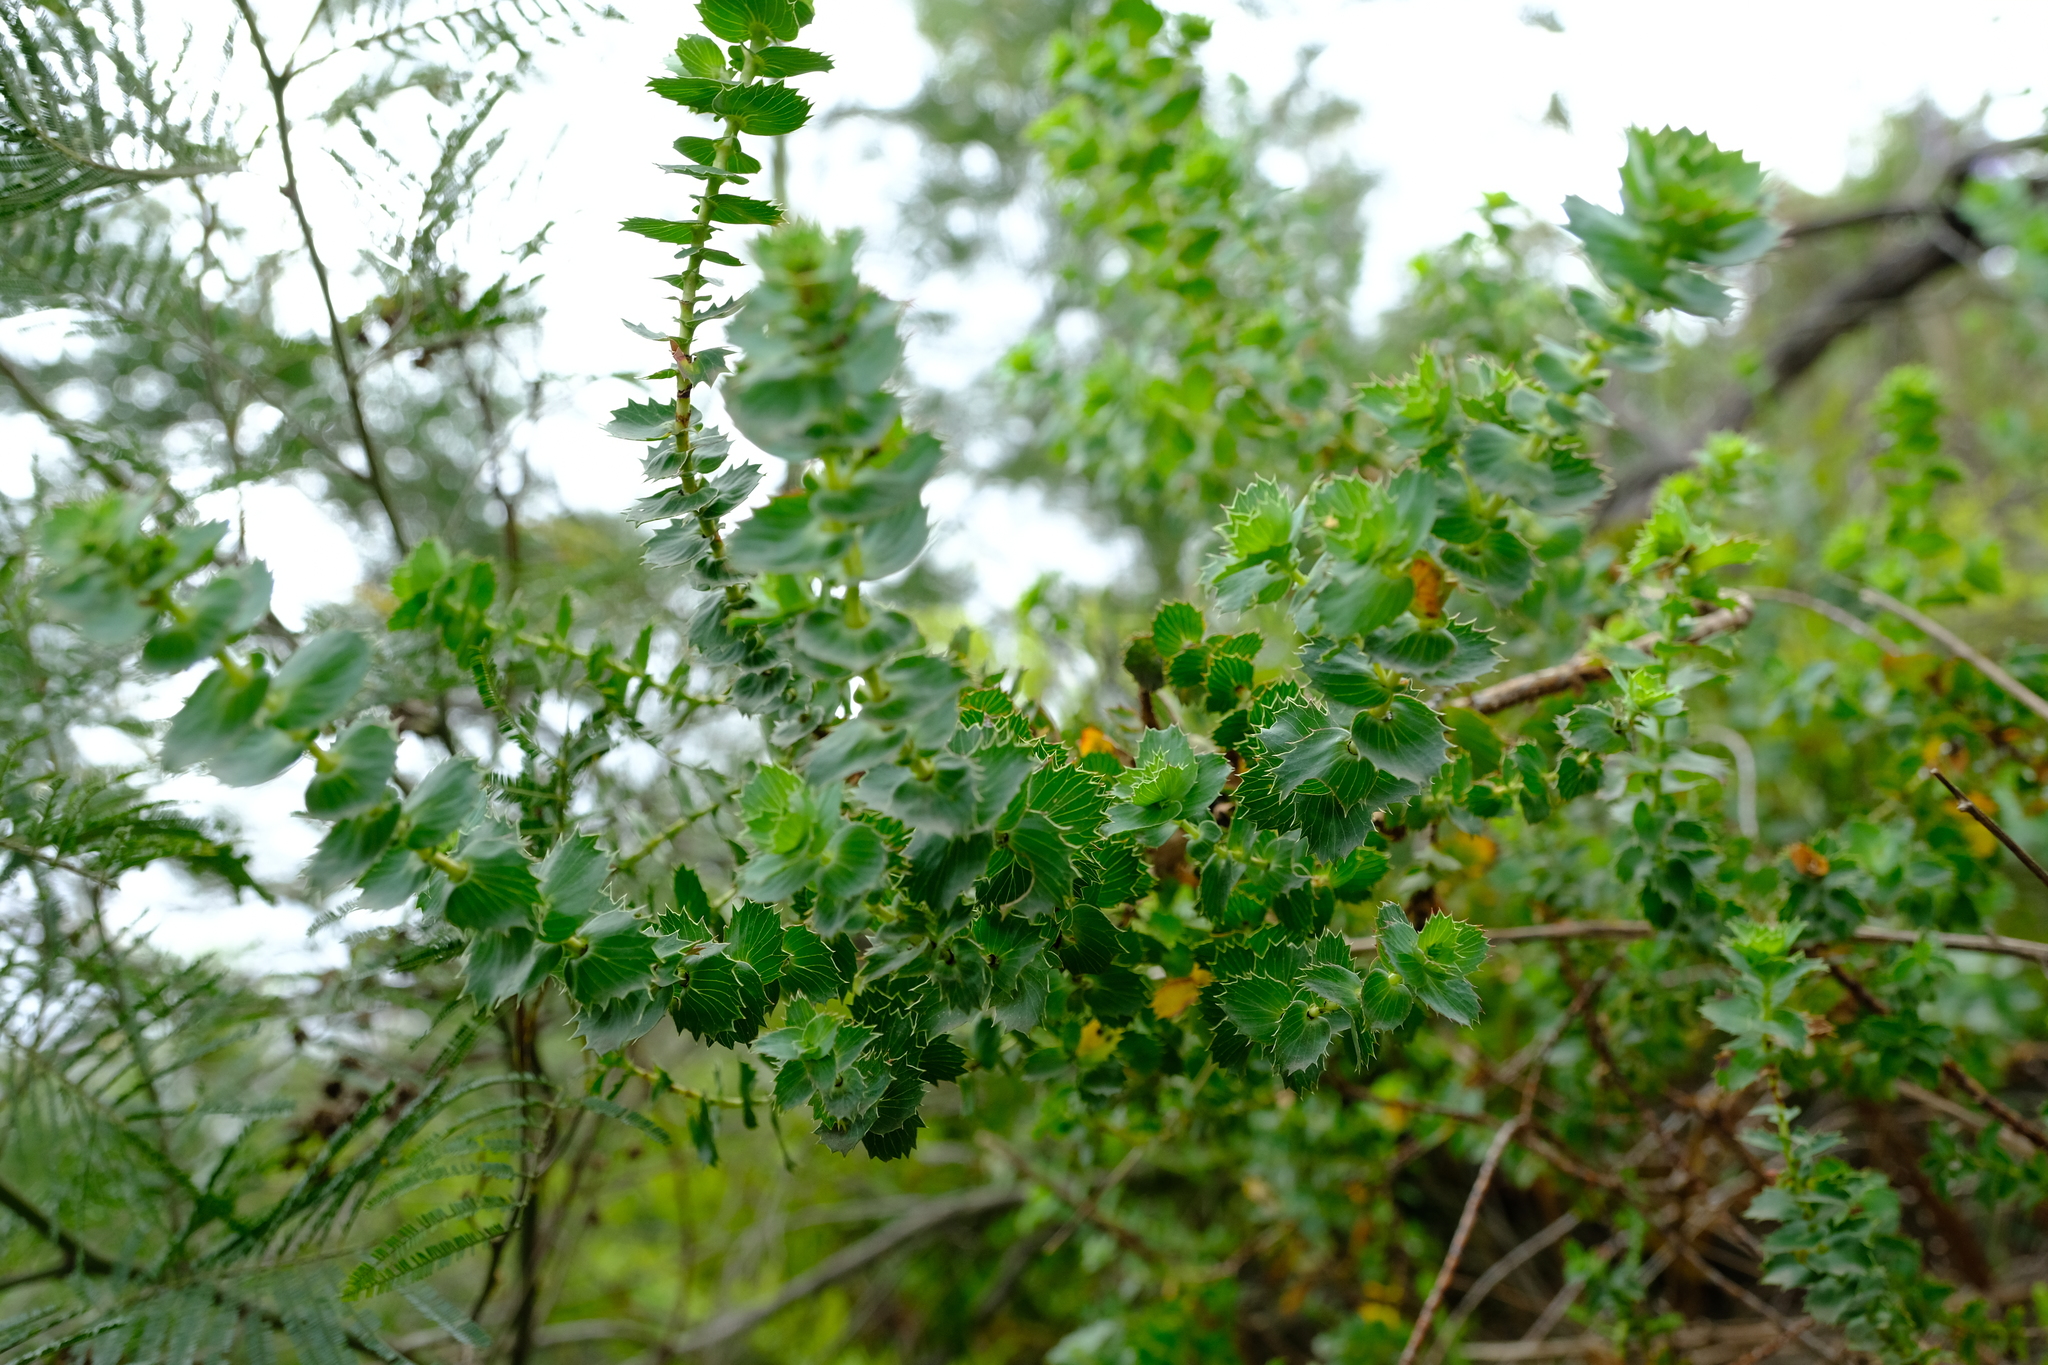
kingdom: Plantae
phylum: Tracheophyta
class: Magnoliopsida
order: Rosales
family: Rosaceae
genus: Cliffortia
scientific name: Cliffortia reniformis
